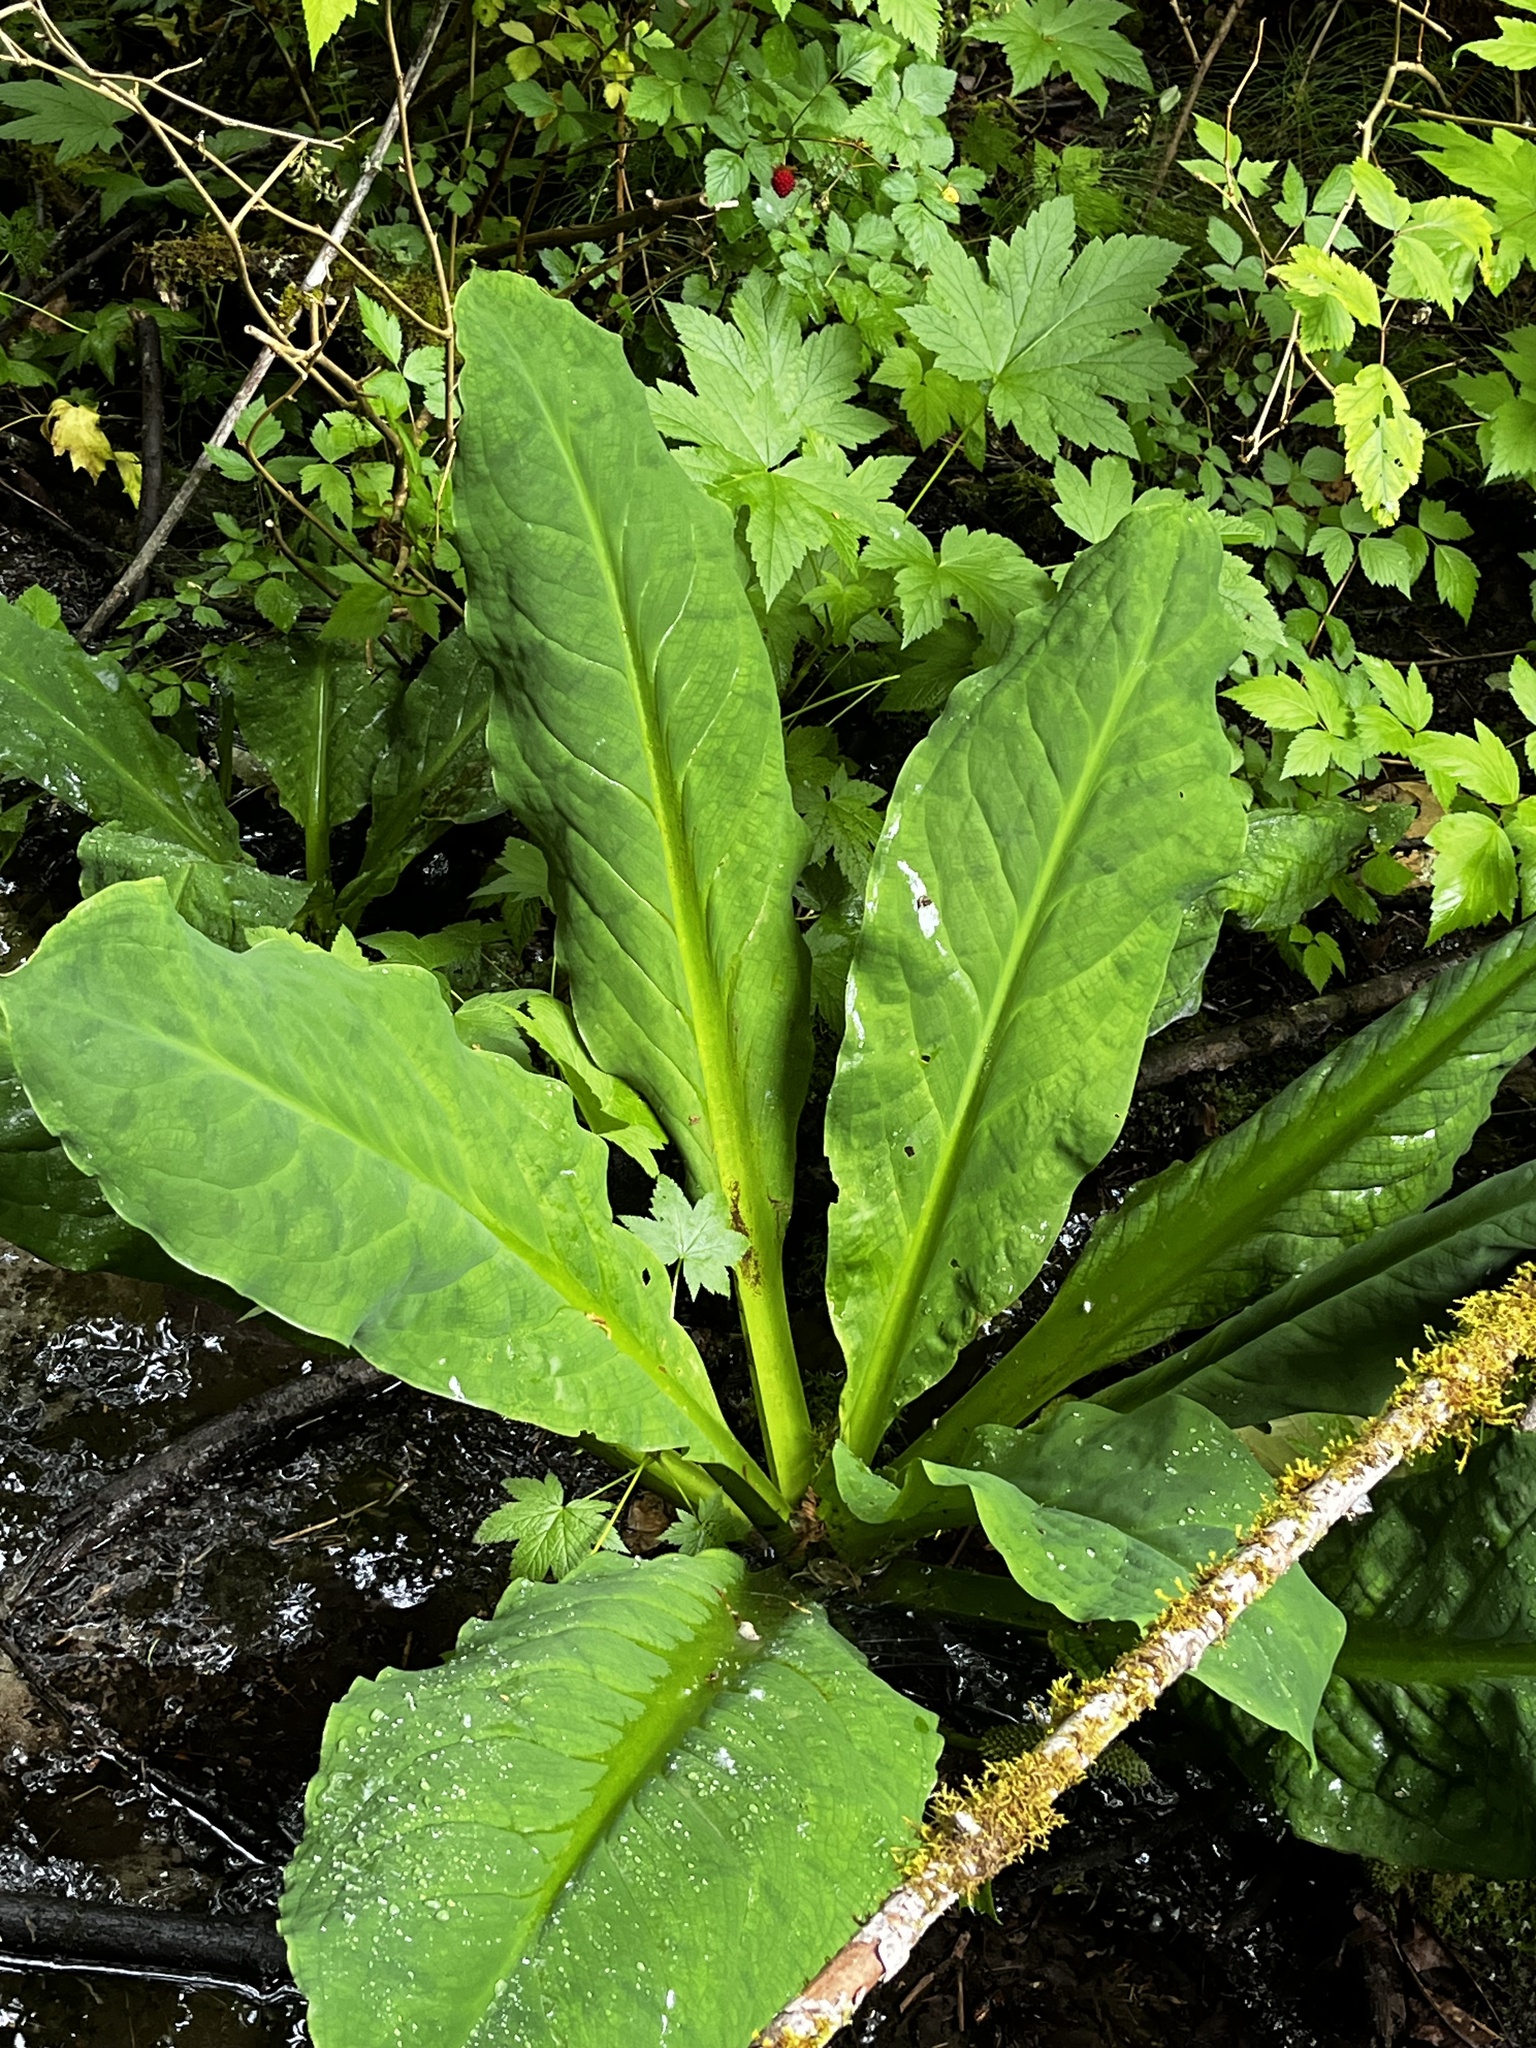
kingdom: Plantae
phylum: Tracheophyta
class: Liliopsida
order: Alismatales
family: Araceae
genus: Lysichiton
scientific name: Lysichiton americanus
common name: American skunk cabbage
